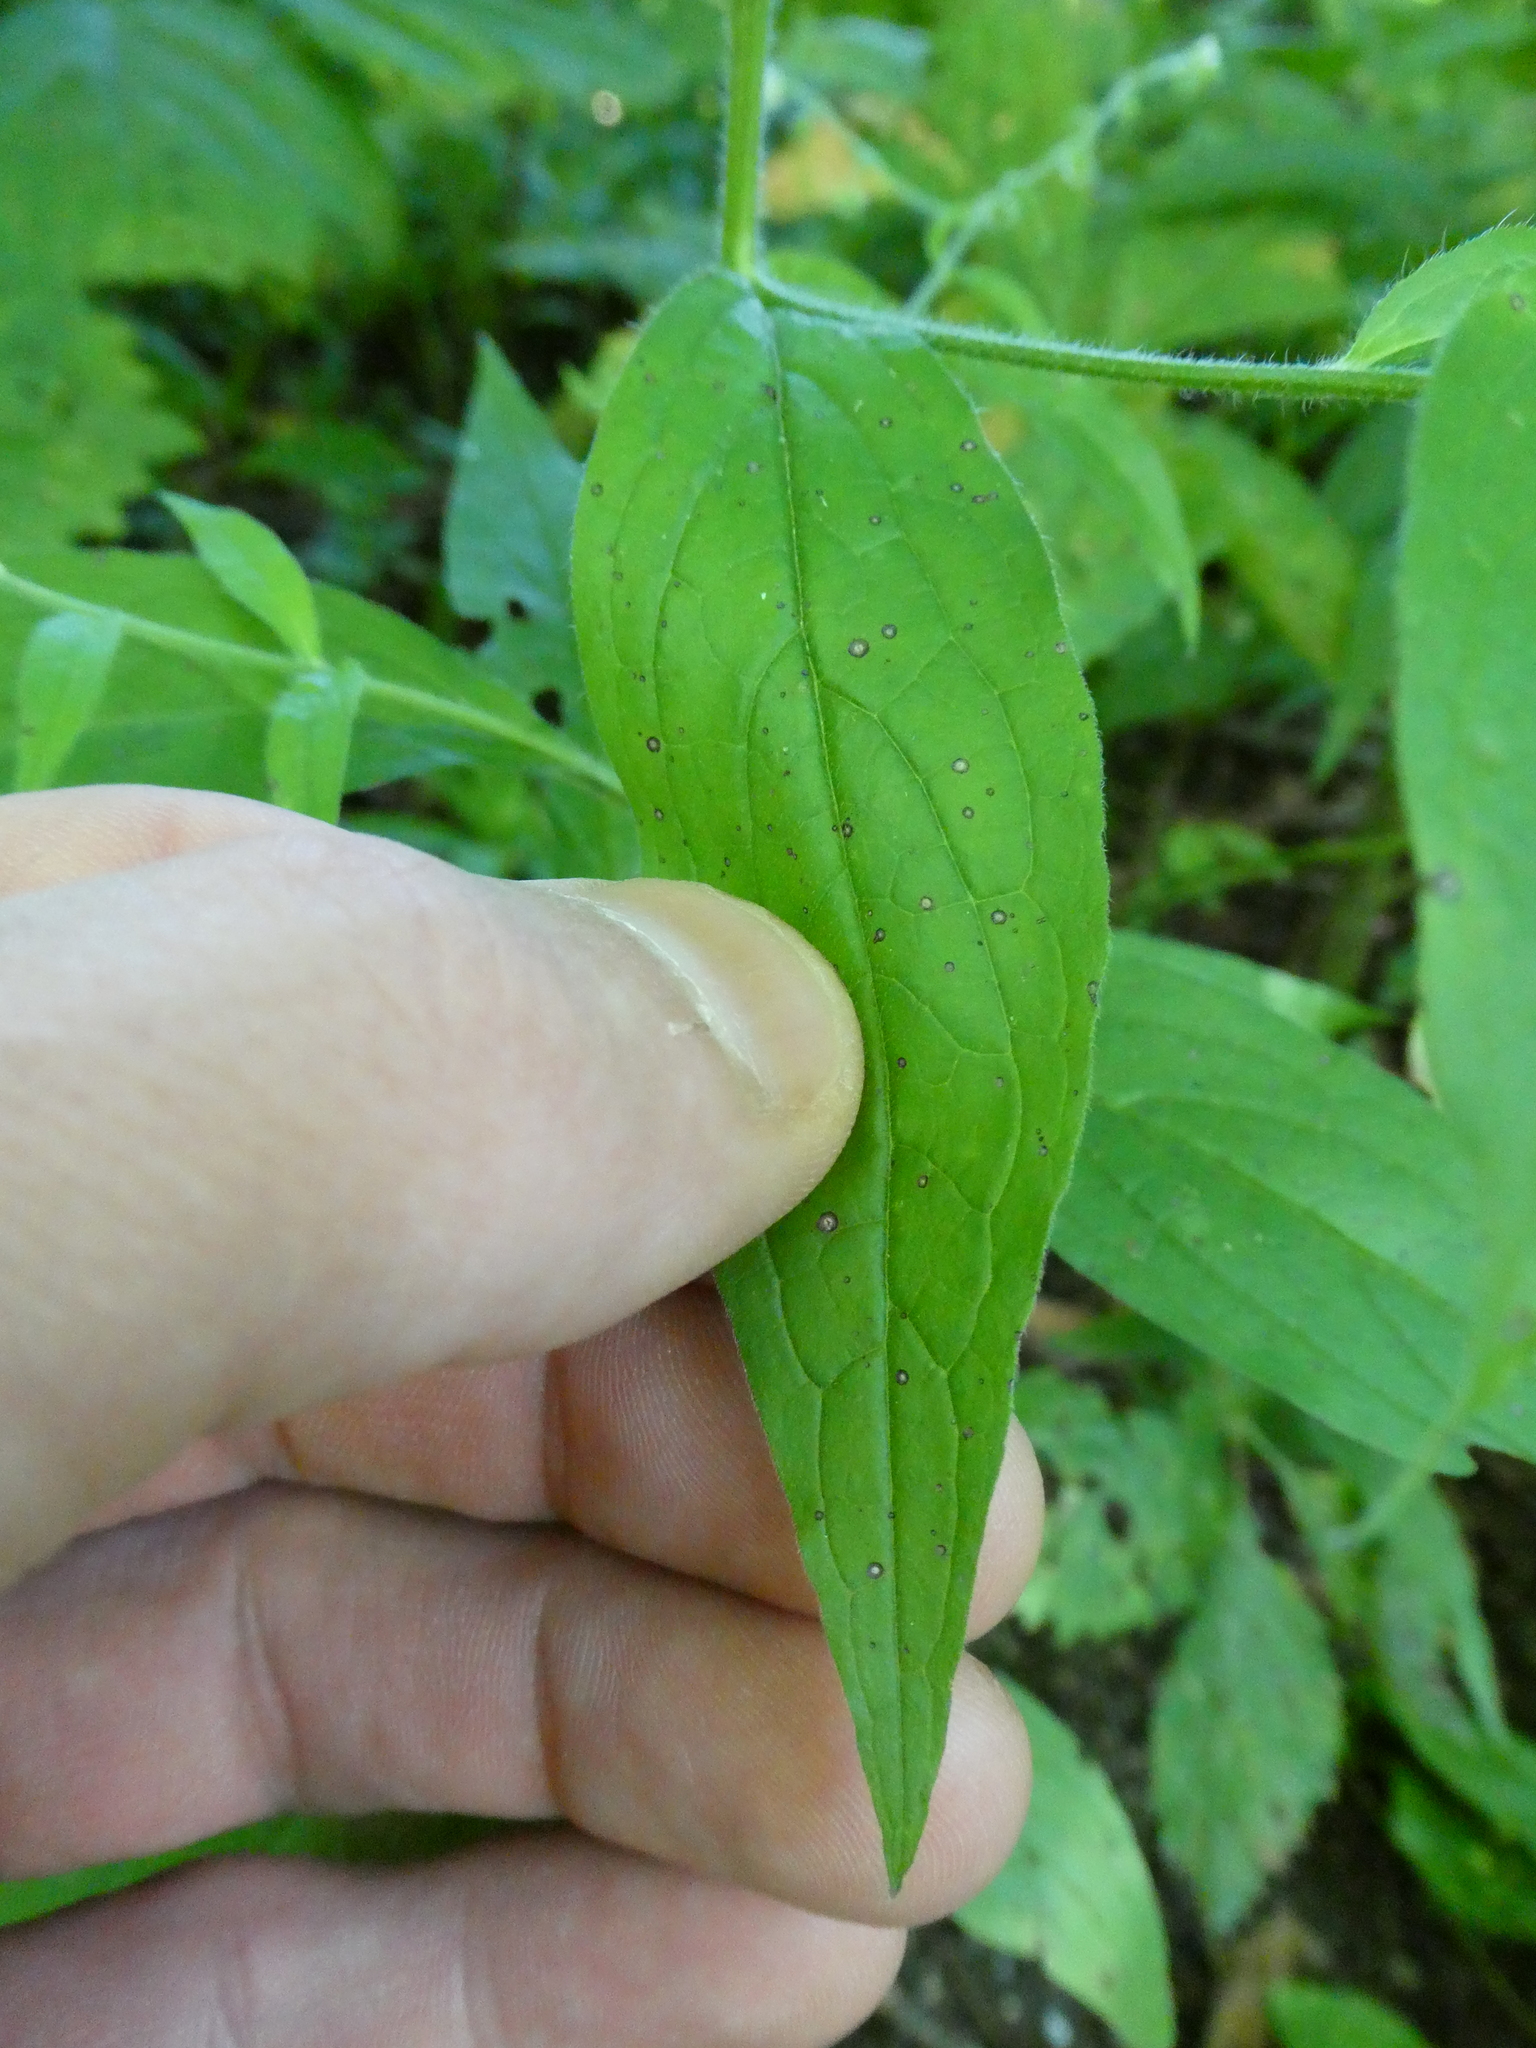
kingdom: Plantae
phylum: Tracheophyta
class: Magnoliopsida
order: Boraginales
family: Boraginaceae
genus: Hackelia
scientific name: Hackelia virginiana
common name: Beggar's-lice
